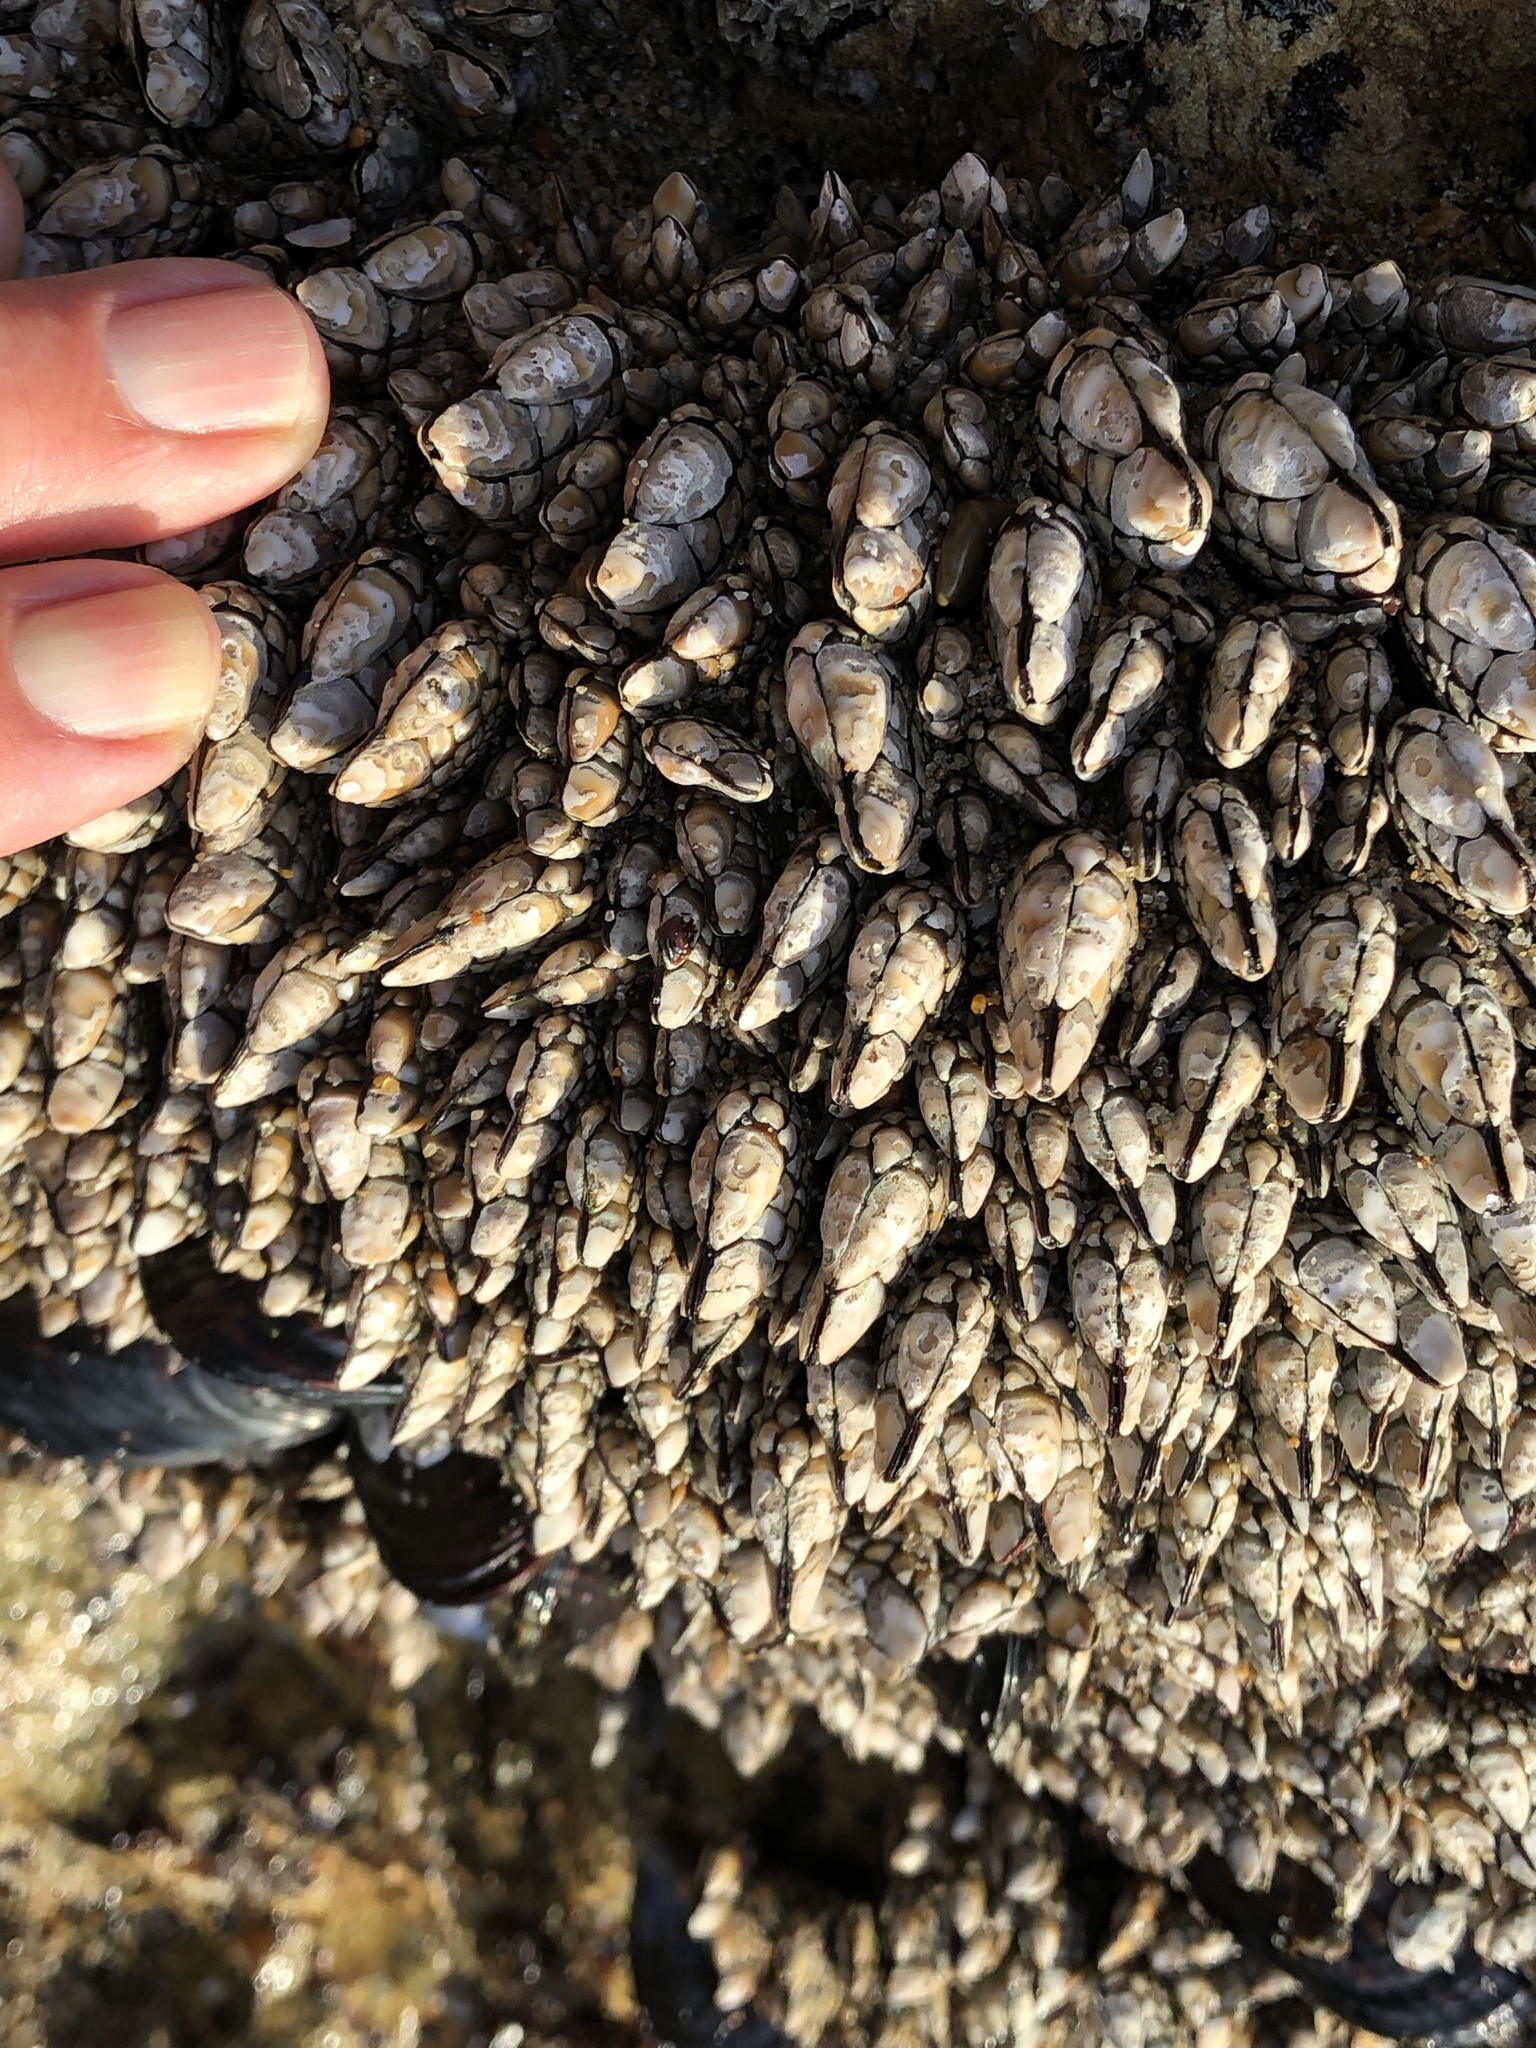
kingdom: Animalia
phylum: Arthropoda
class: Maxillopoda
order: Pedunculata
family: Pollicipedidae
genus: Pollicipes
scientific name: Pollicipes polymerus
